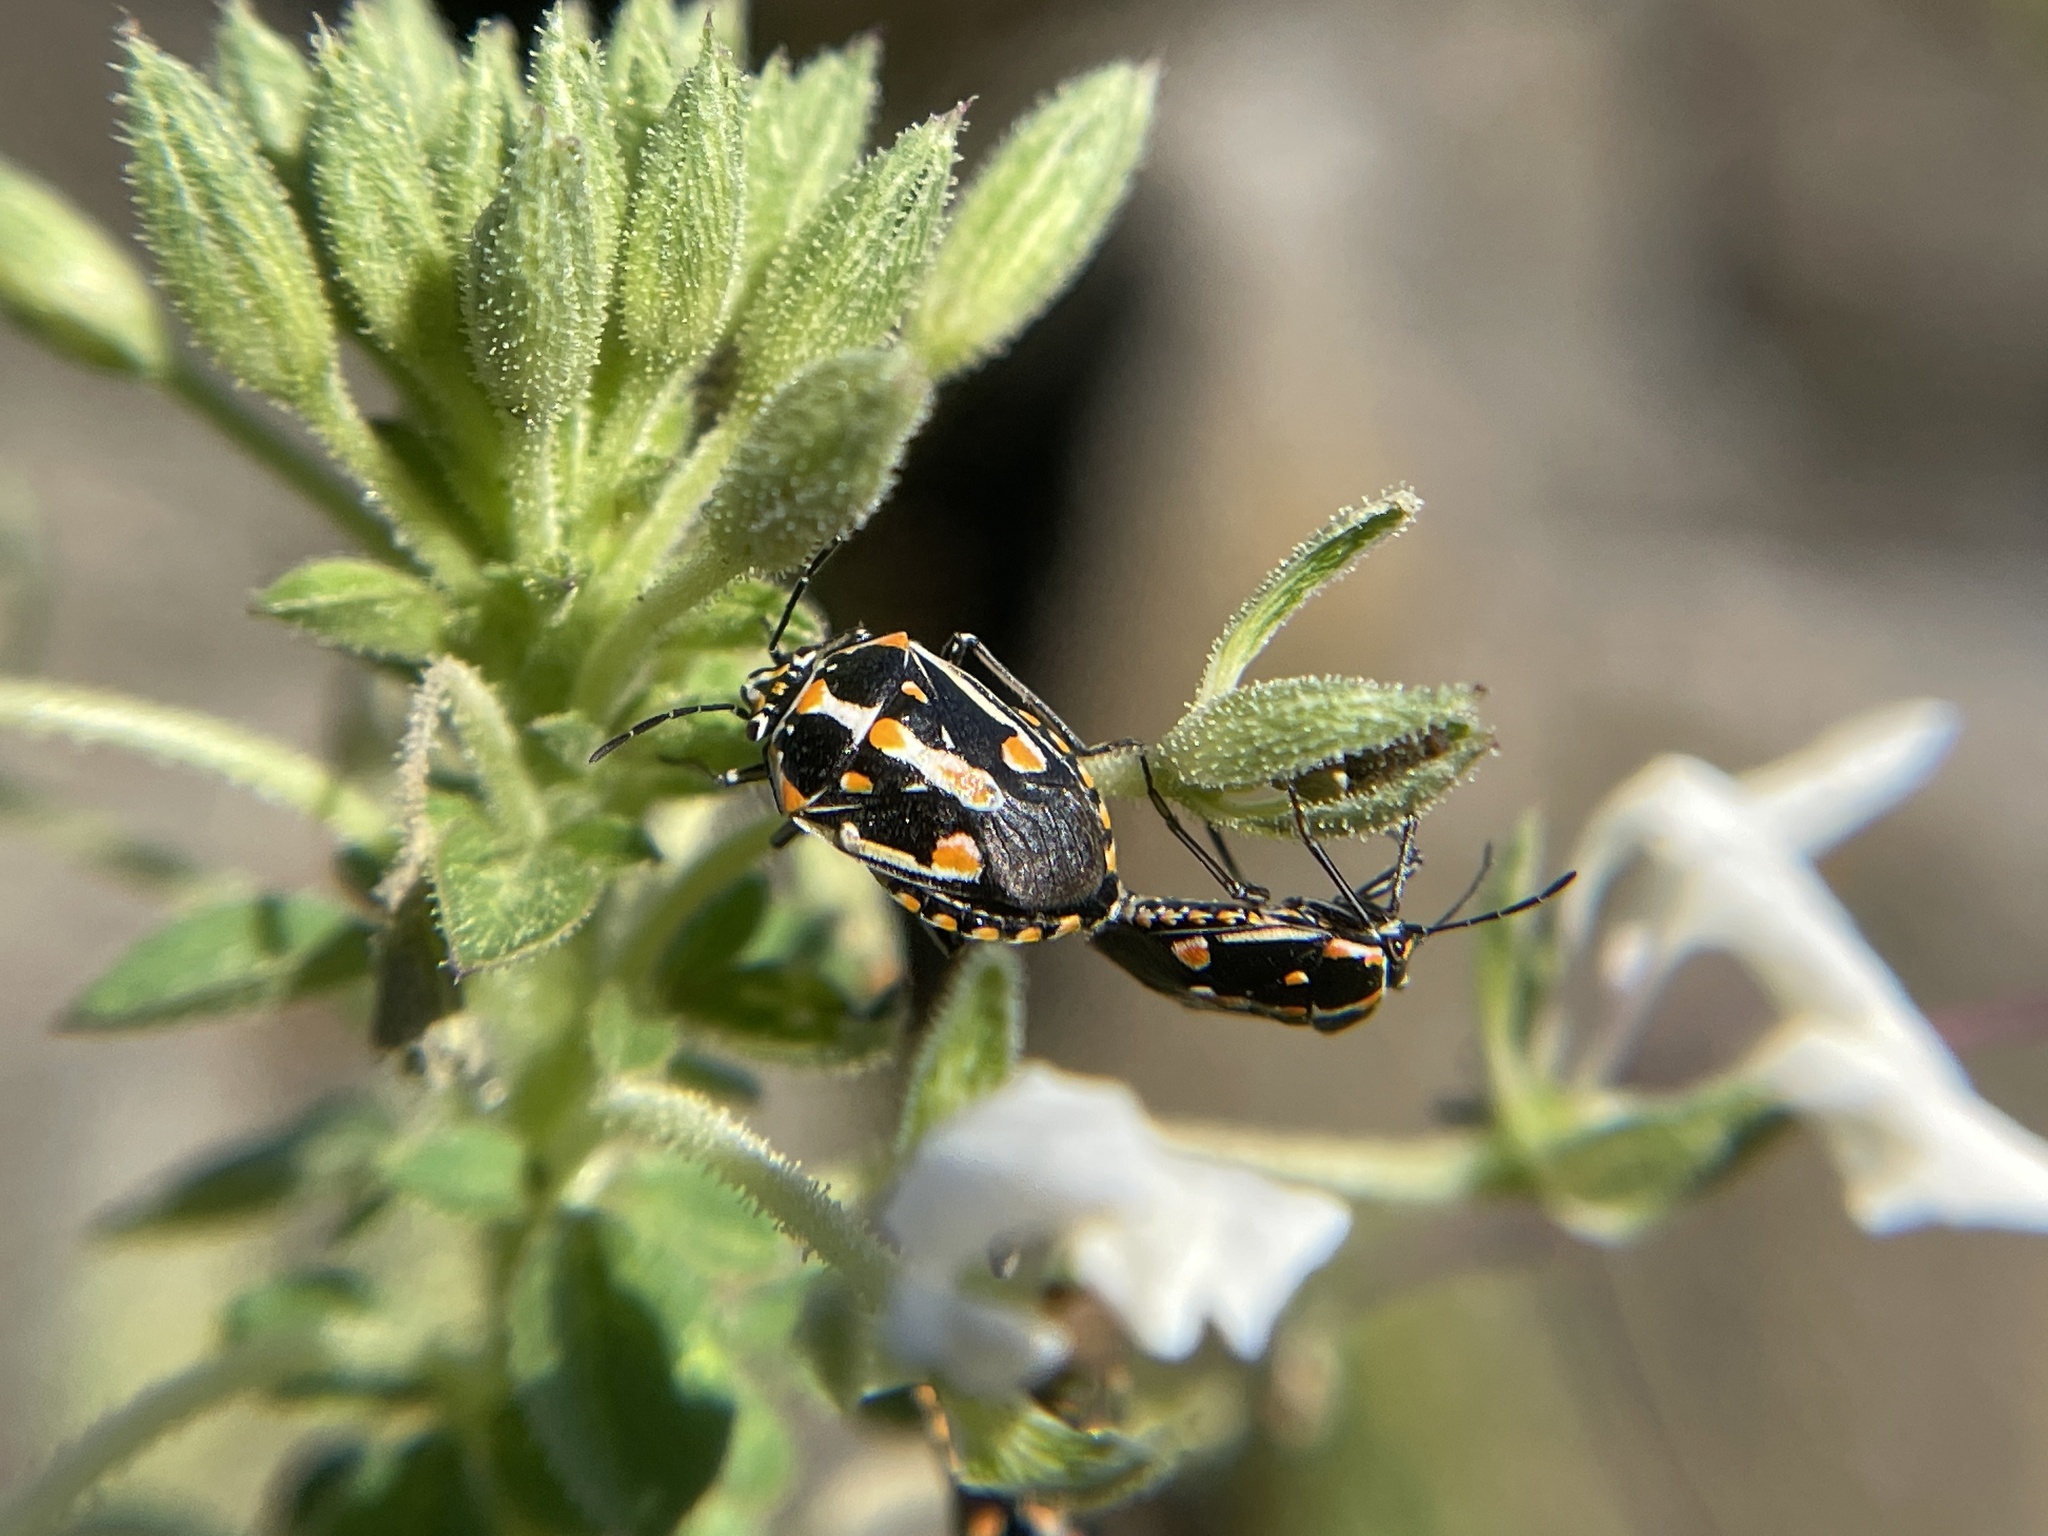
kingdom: Animalia
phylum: Arthropoda
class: Insecta
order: Hemiptera
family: Pentatomidae
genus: Bagrada
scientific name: Bagrada hilaris
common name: Bagrada bug
